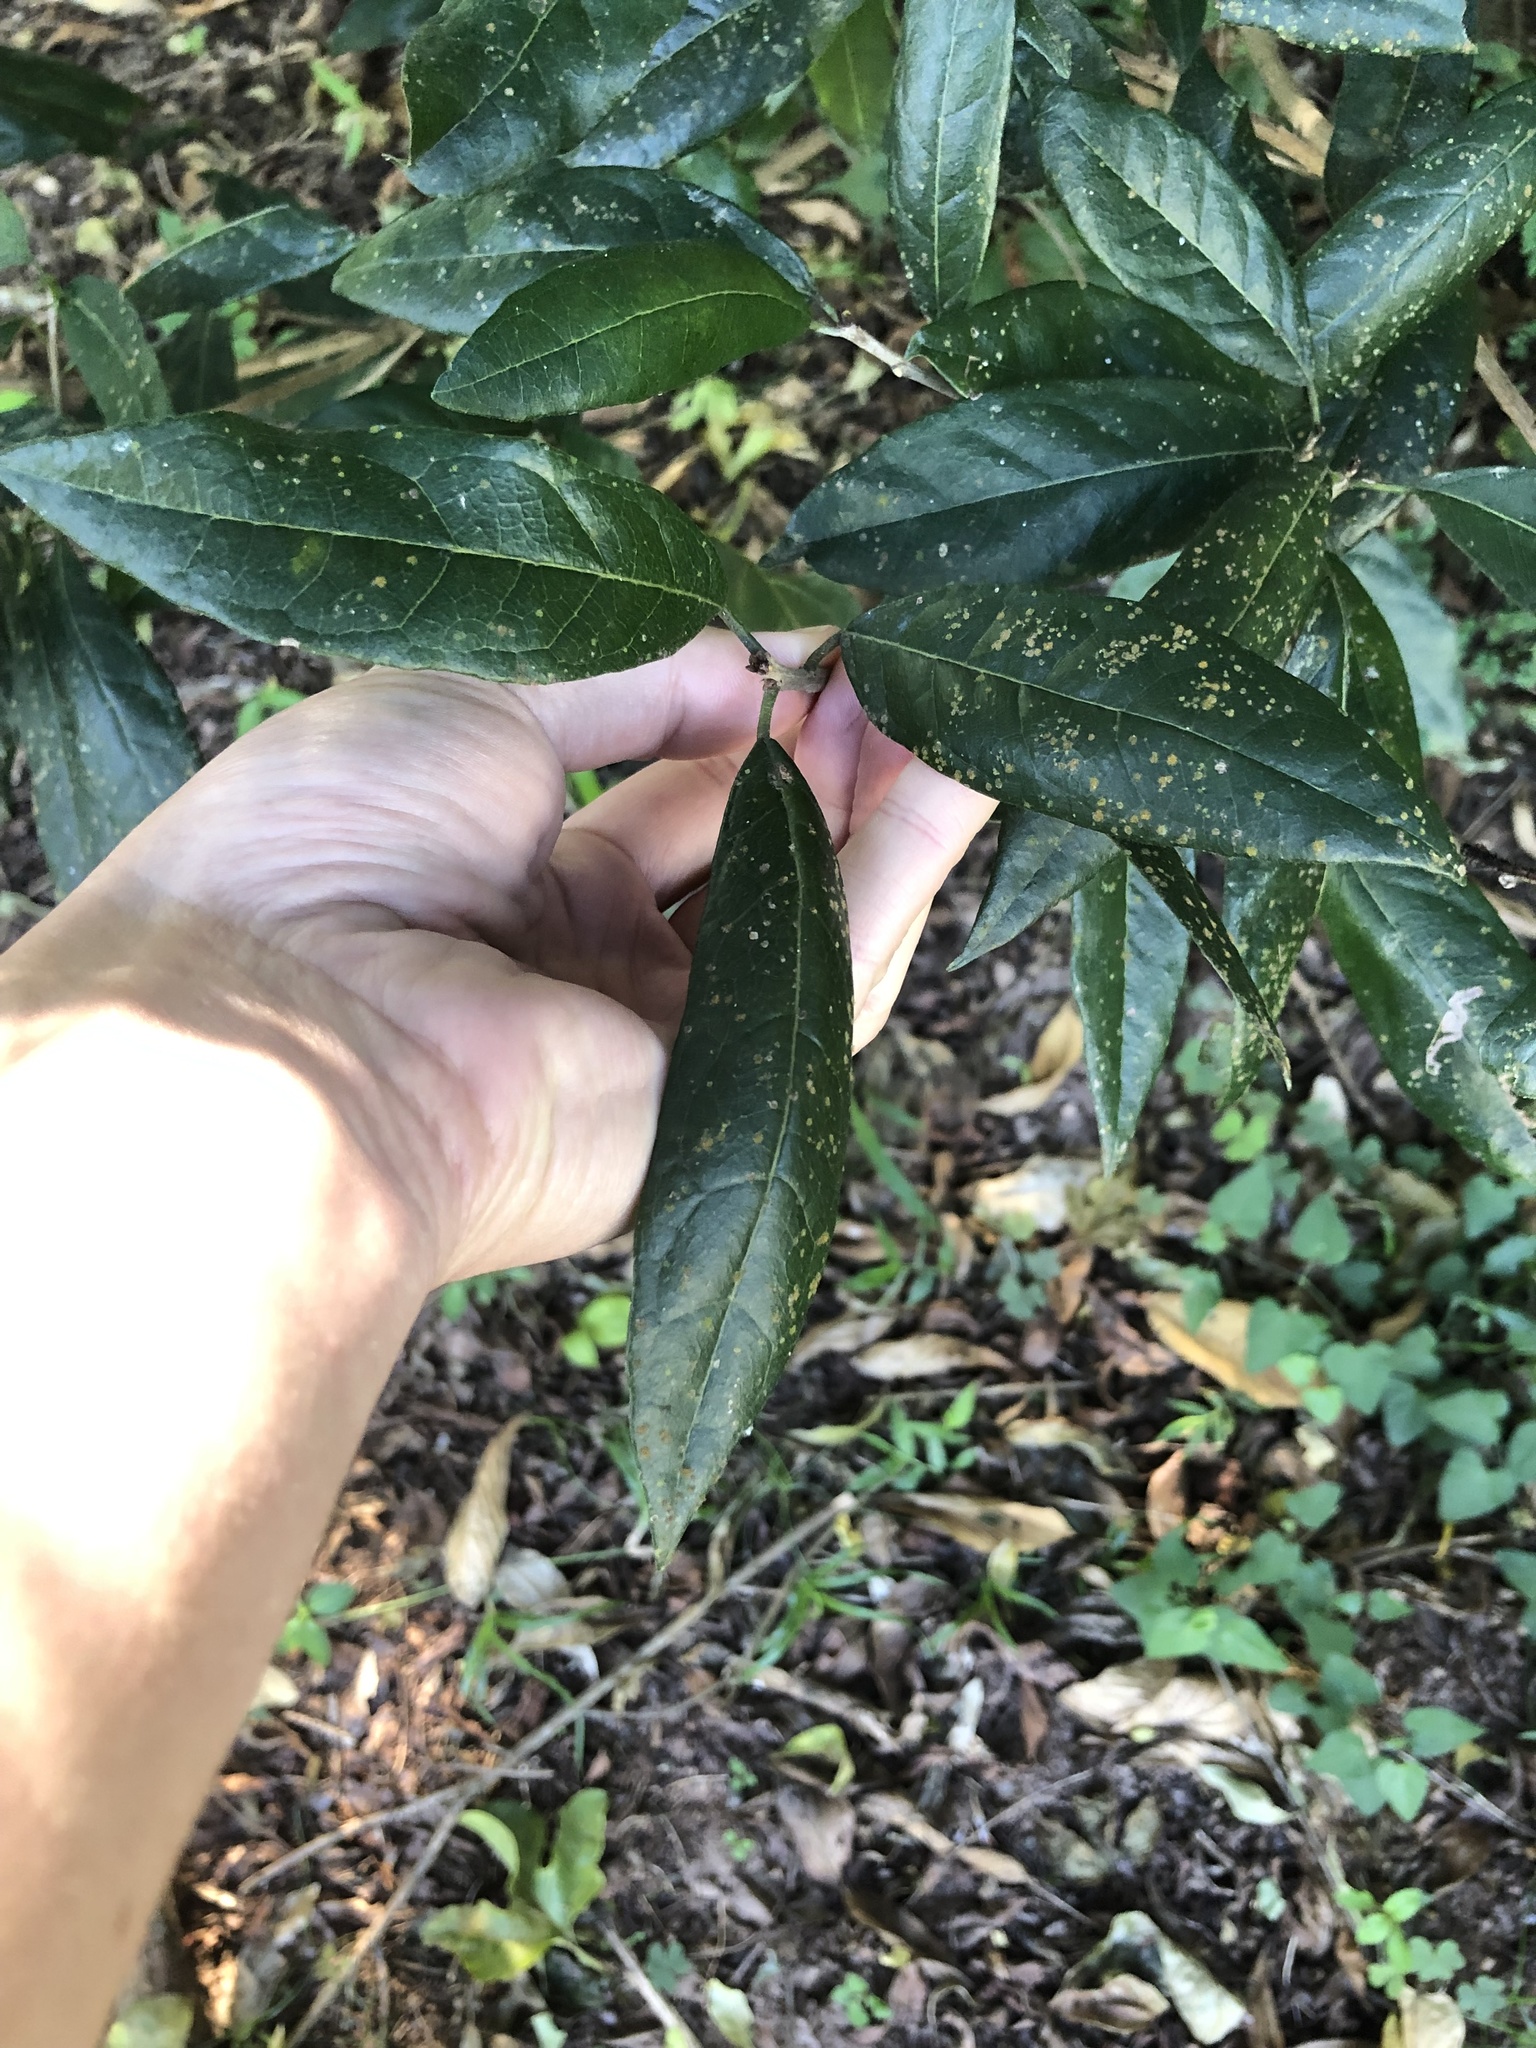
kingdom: Plantae
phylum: Tracheophyta
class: Magnoliopsida
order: Laurales
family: Lauraceae
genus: Litsea
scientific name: Litsea glutinosa
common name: Indian-laurel
